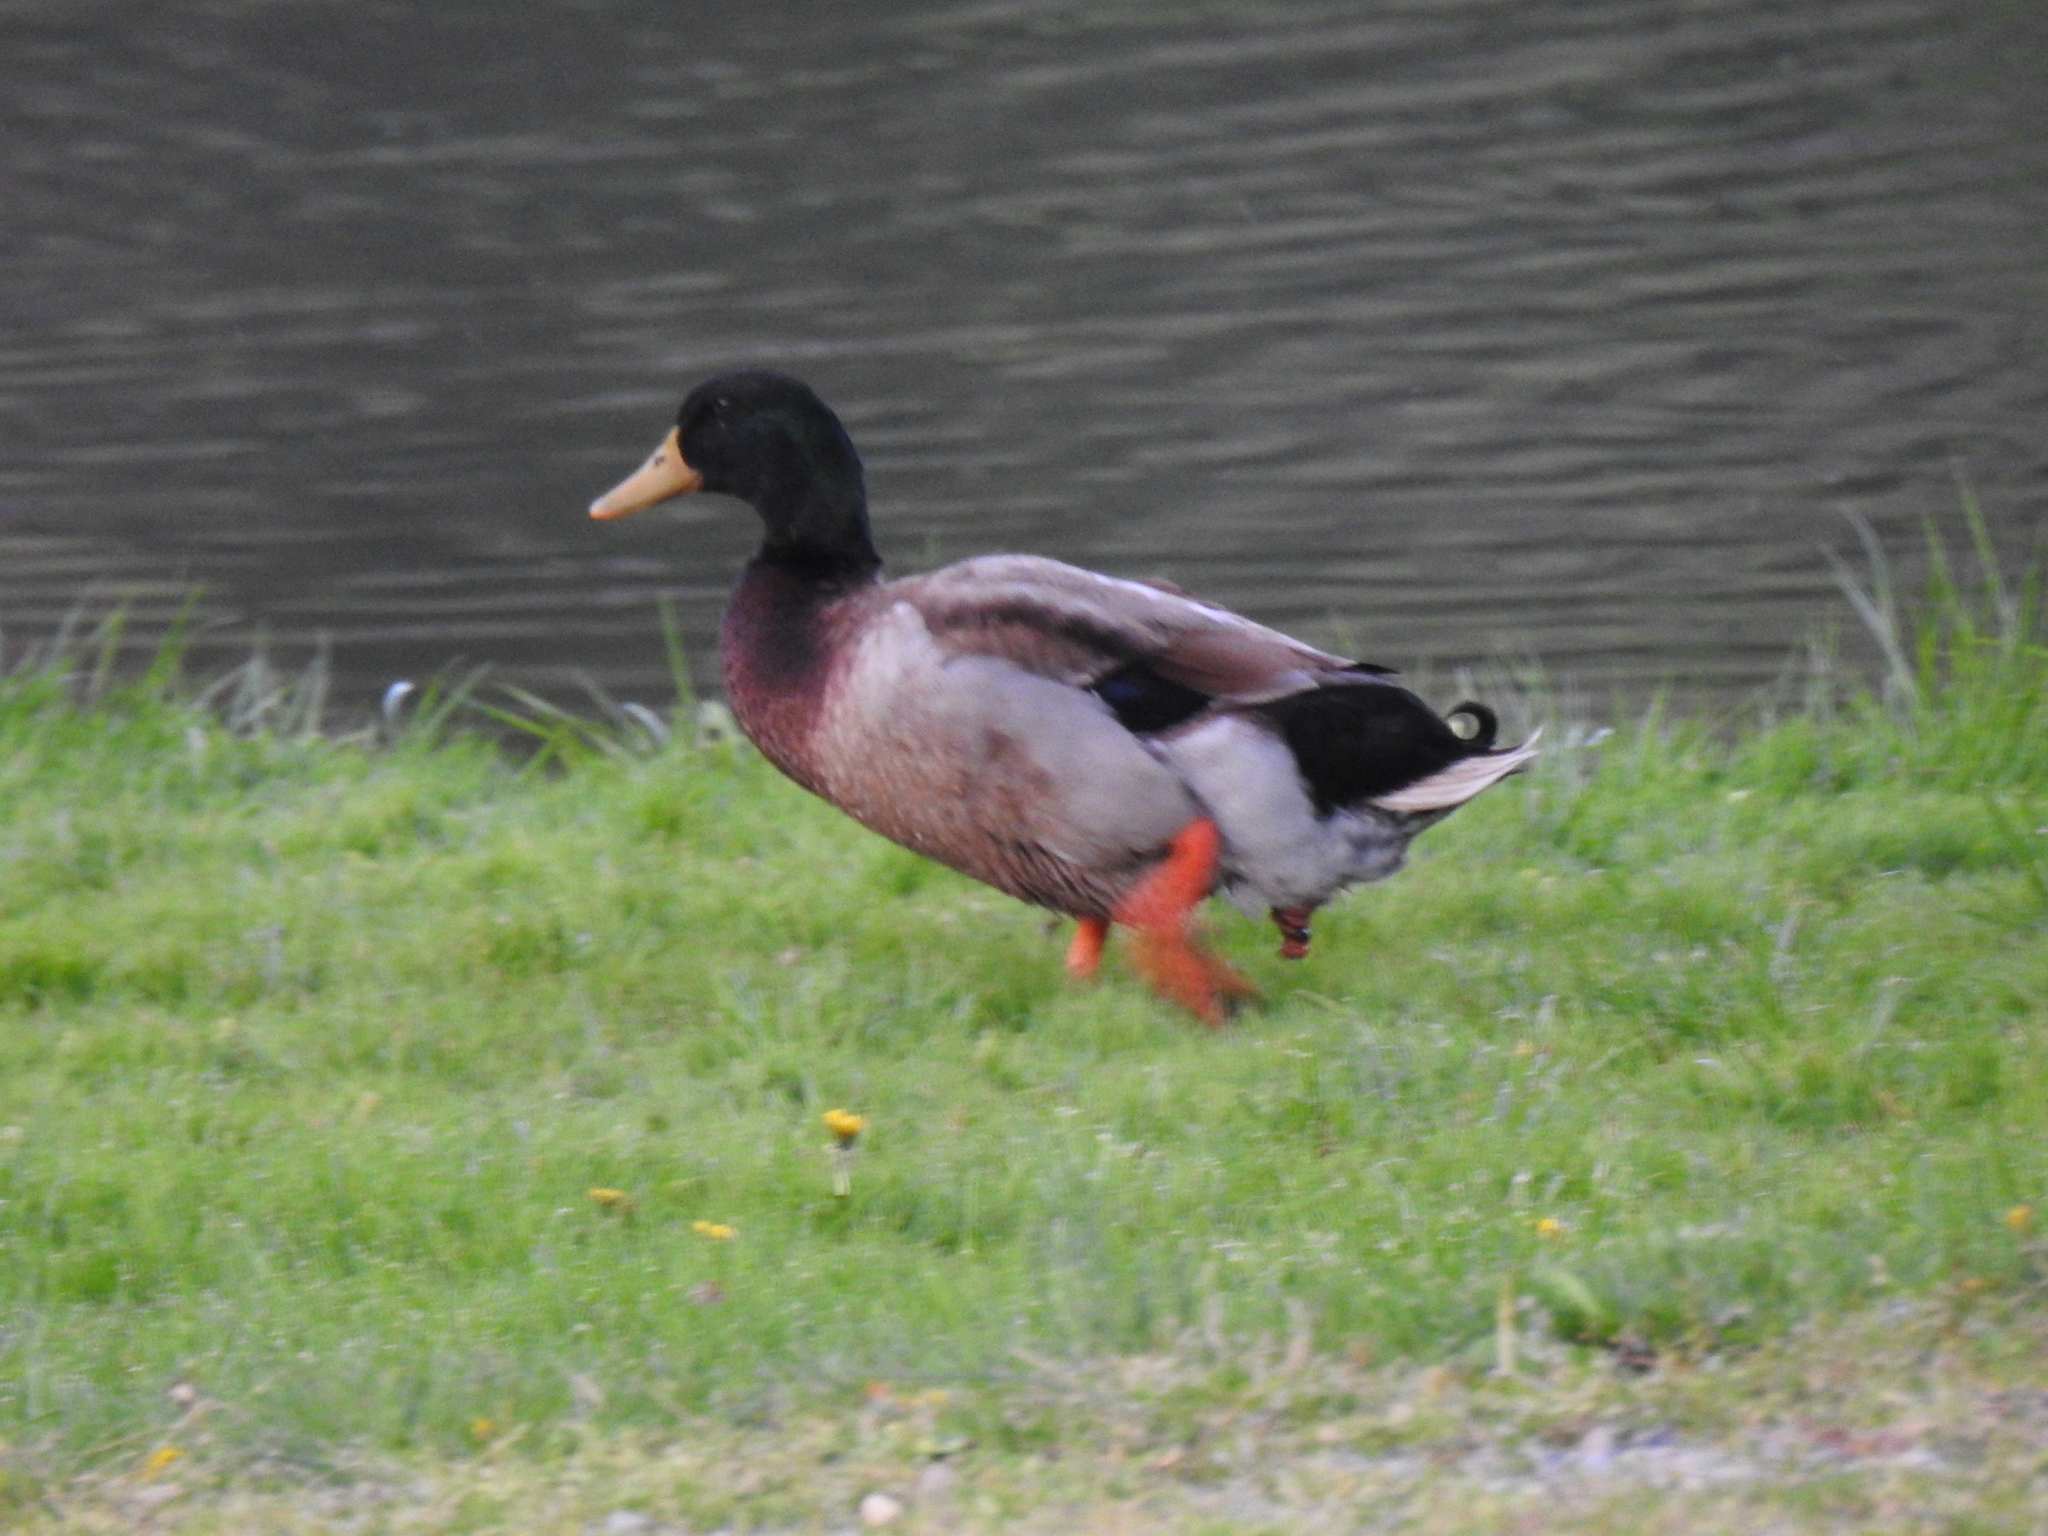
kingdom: Animalia
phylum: Chordata
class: Aves
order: Anseriformes
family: Anatidae
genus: Anas
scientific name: Anas platyrhynchos
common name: Mallard
